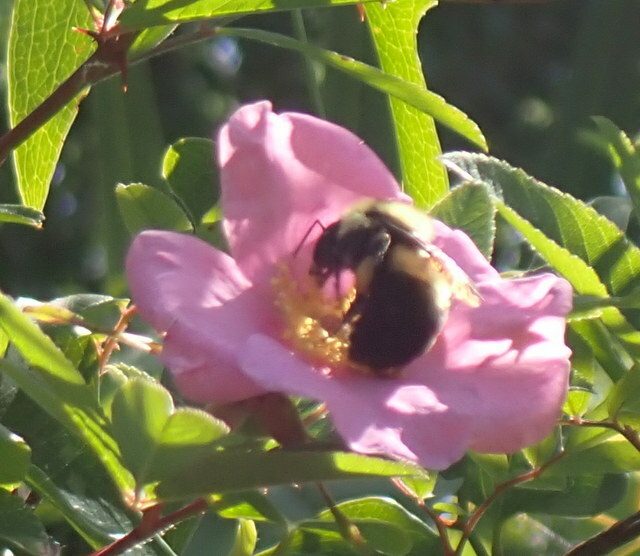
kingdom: Animalia
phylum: Arthropoda
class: Insecta
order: Hymenoptera
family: Apidae
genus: Bombus
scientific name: Bombus griseocollis
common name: Brown-belted bumble bee
